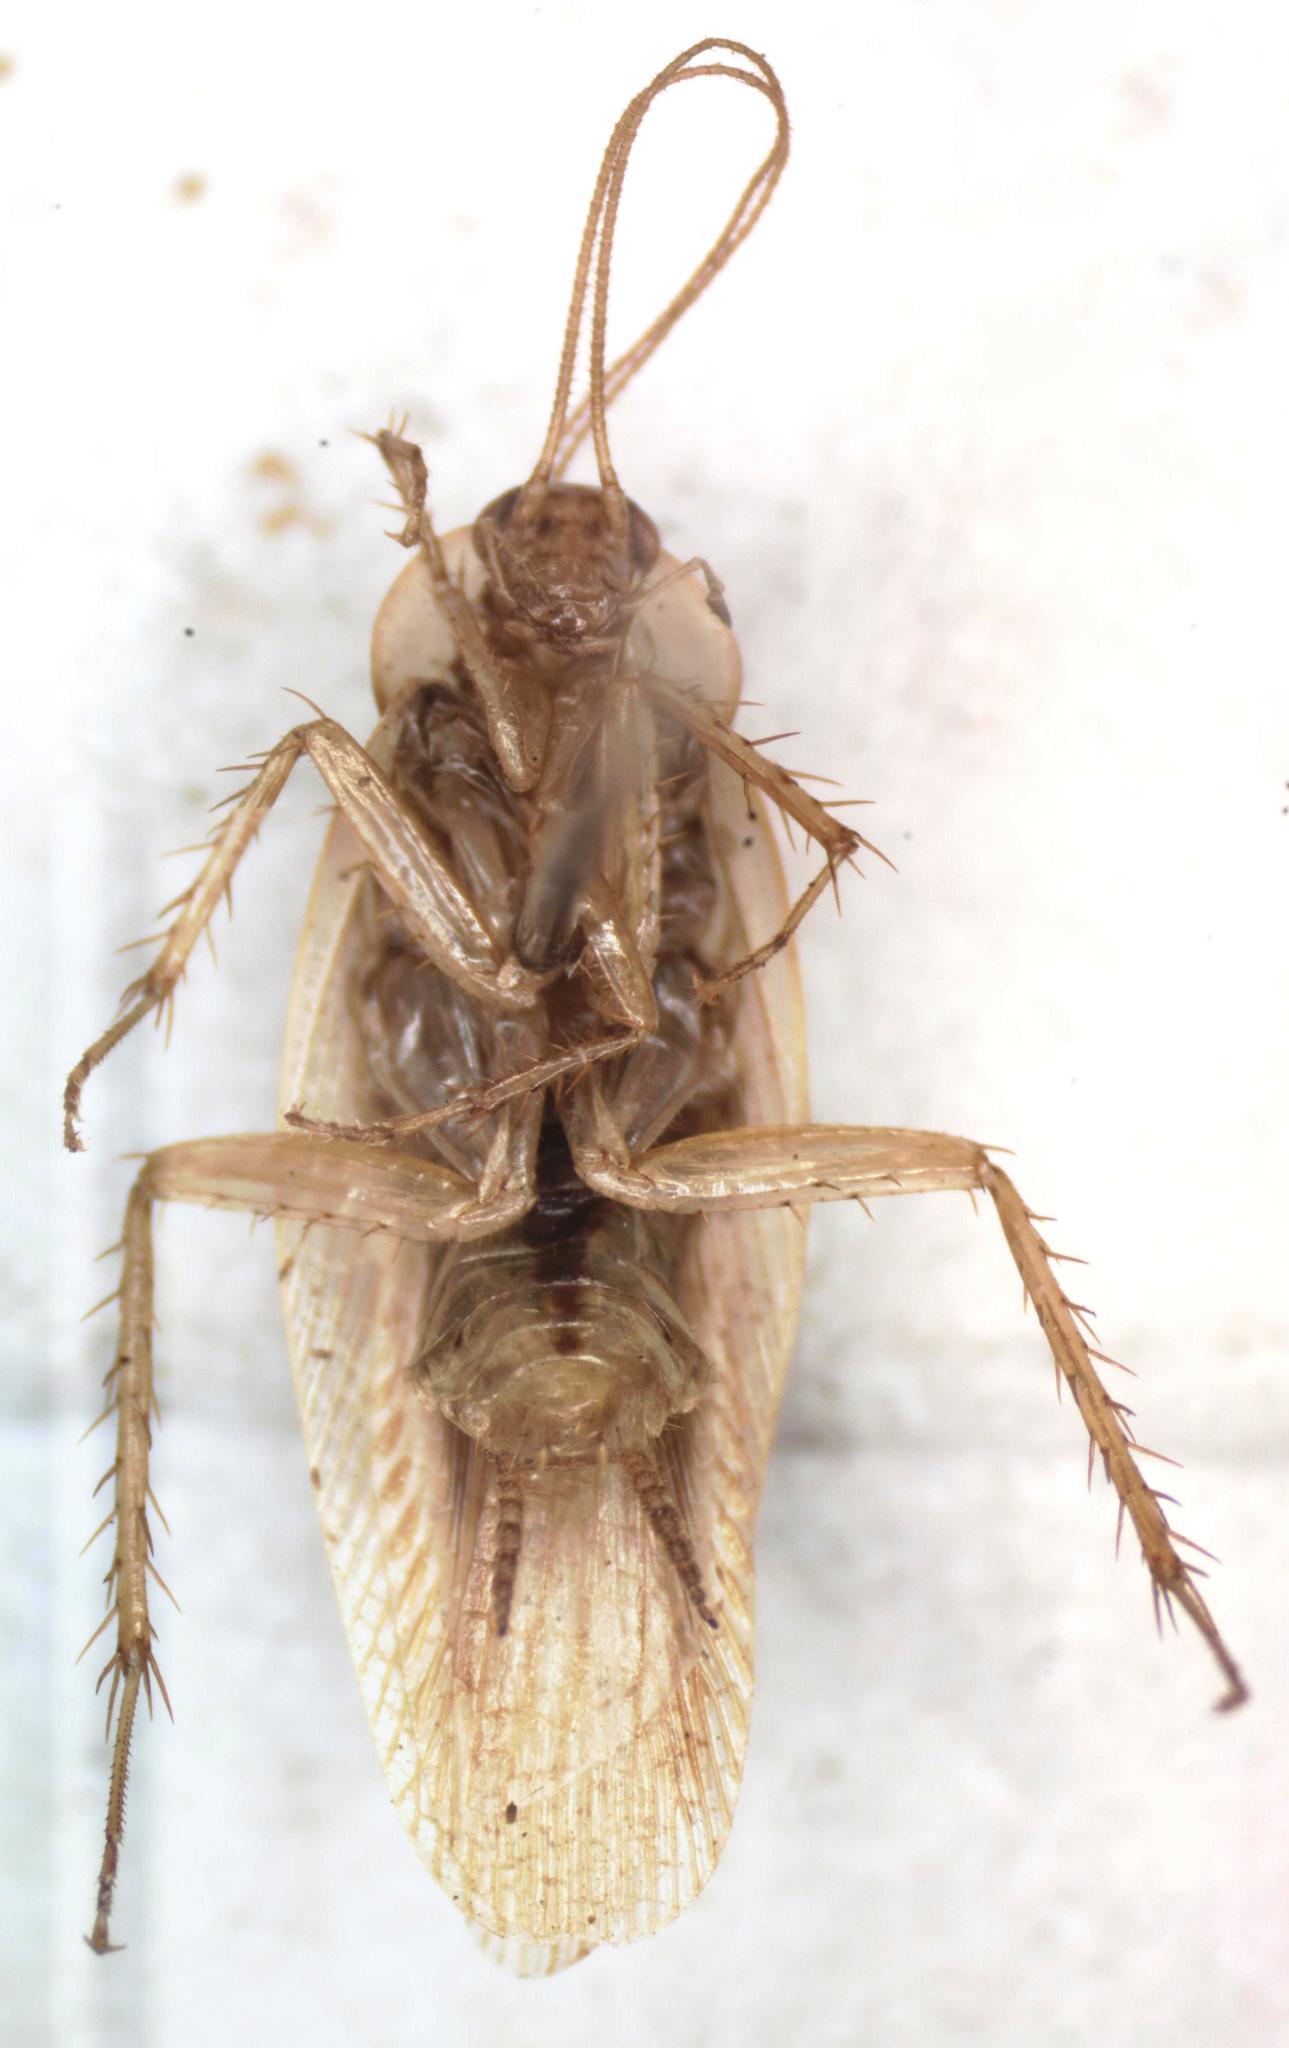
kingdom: Animalia
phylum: Arthropoda
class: Insecta
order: Blattodea
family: Ectobiidae
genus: Imblattella
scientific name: Imblattella chagrensis
